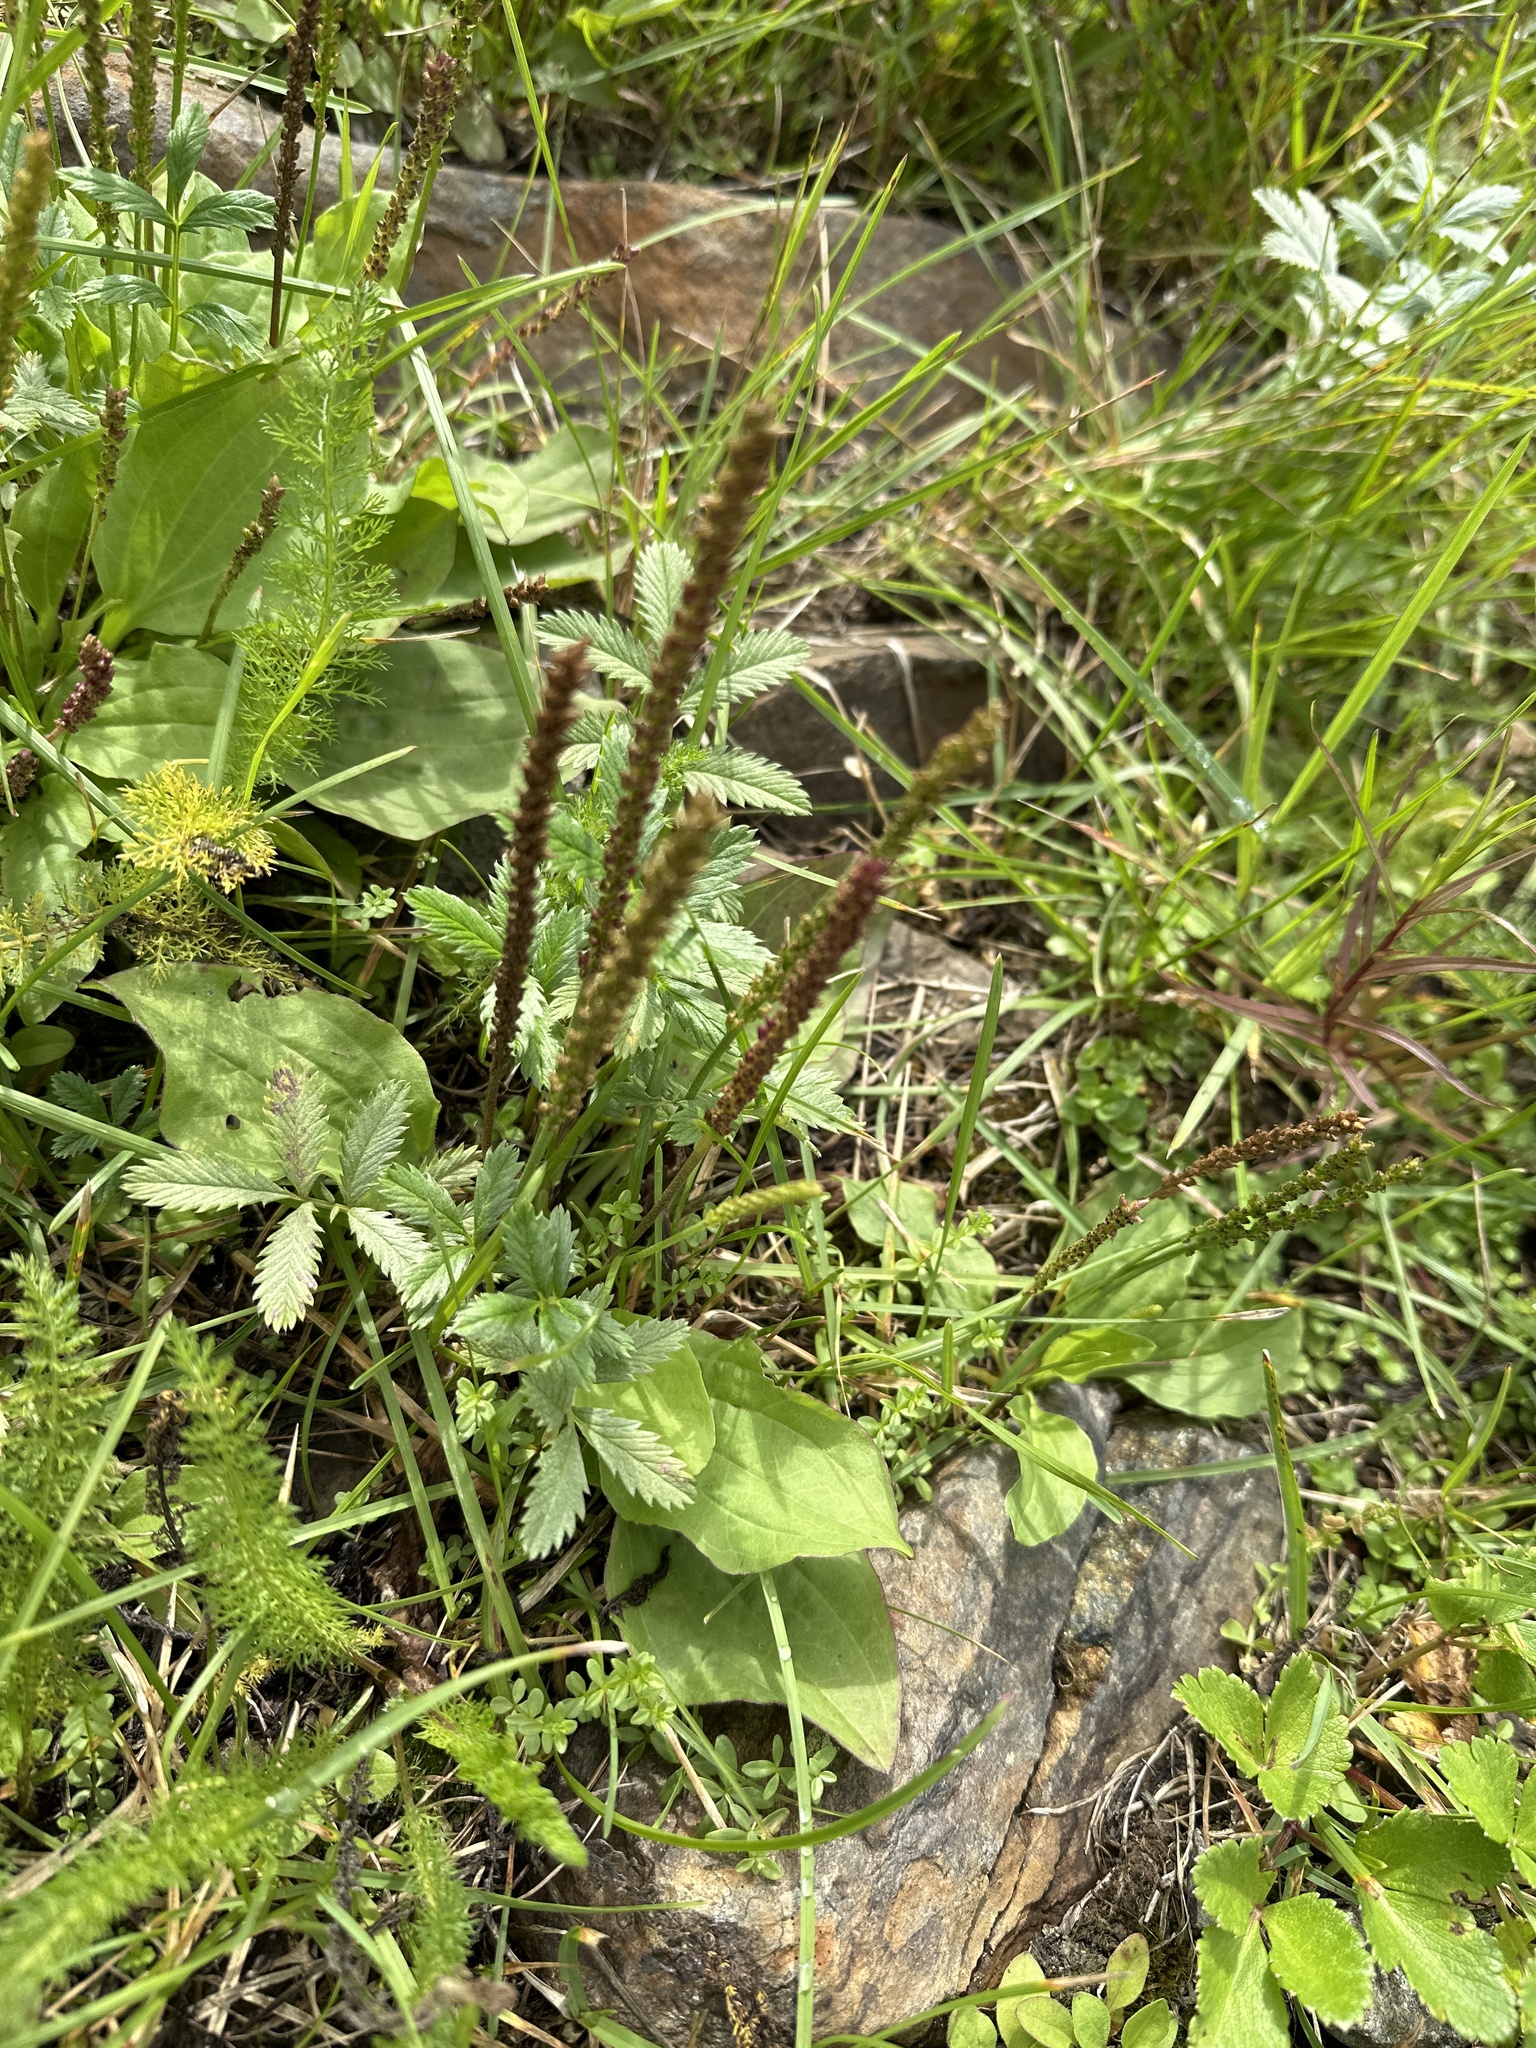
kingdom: Plantae
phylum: Tracheophyta
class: Magnoliopsida
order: Lamiales
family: Plantaginaceae
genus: Plantago
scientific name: Plantago major
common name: Common plantain
